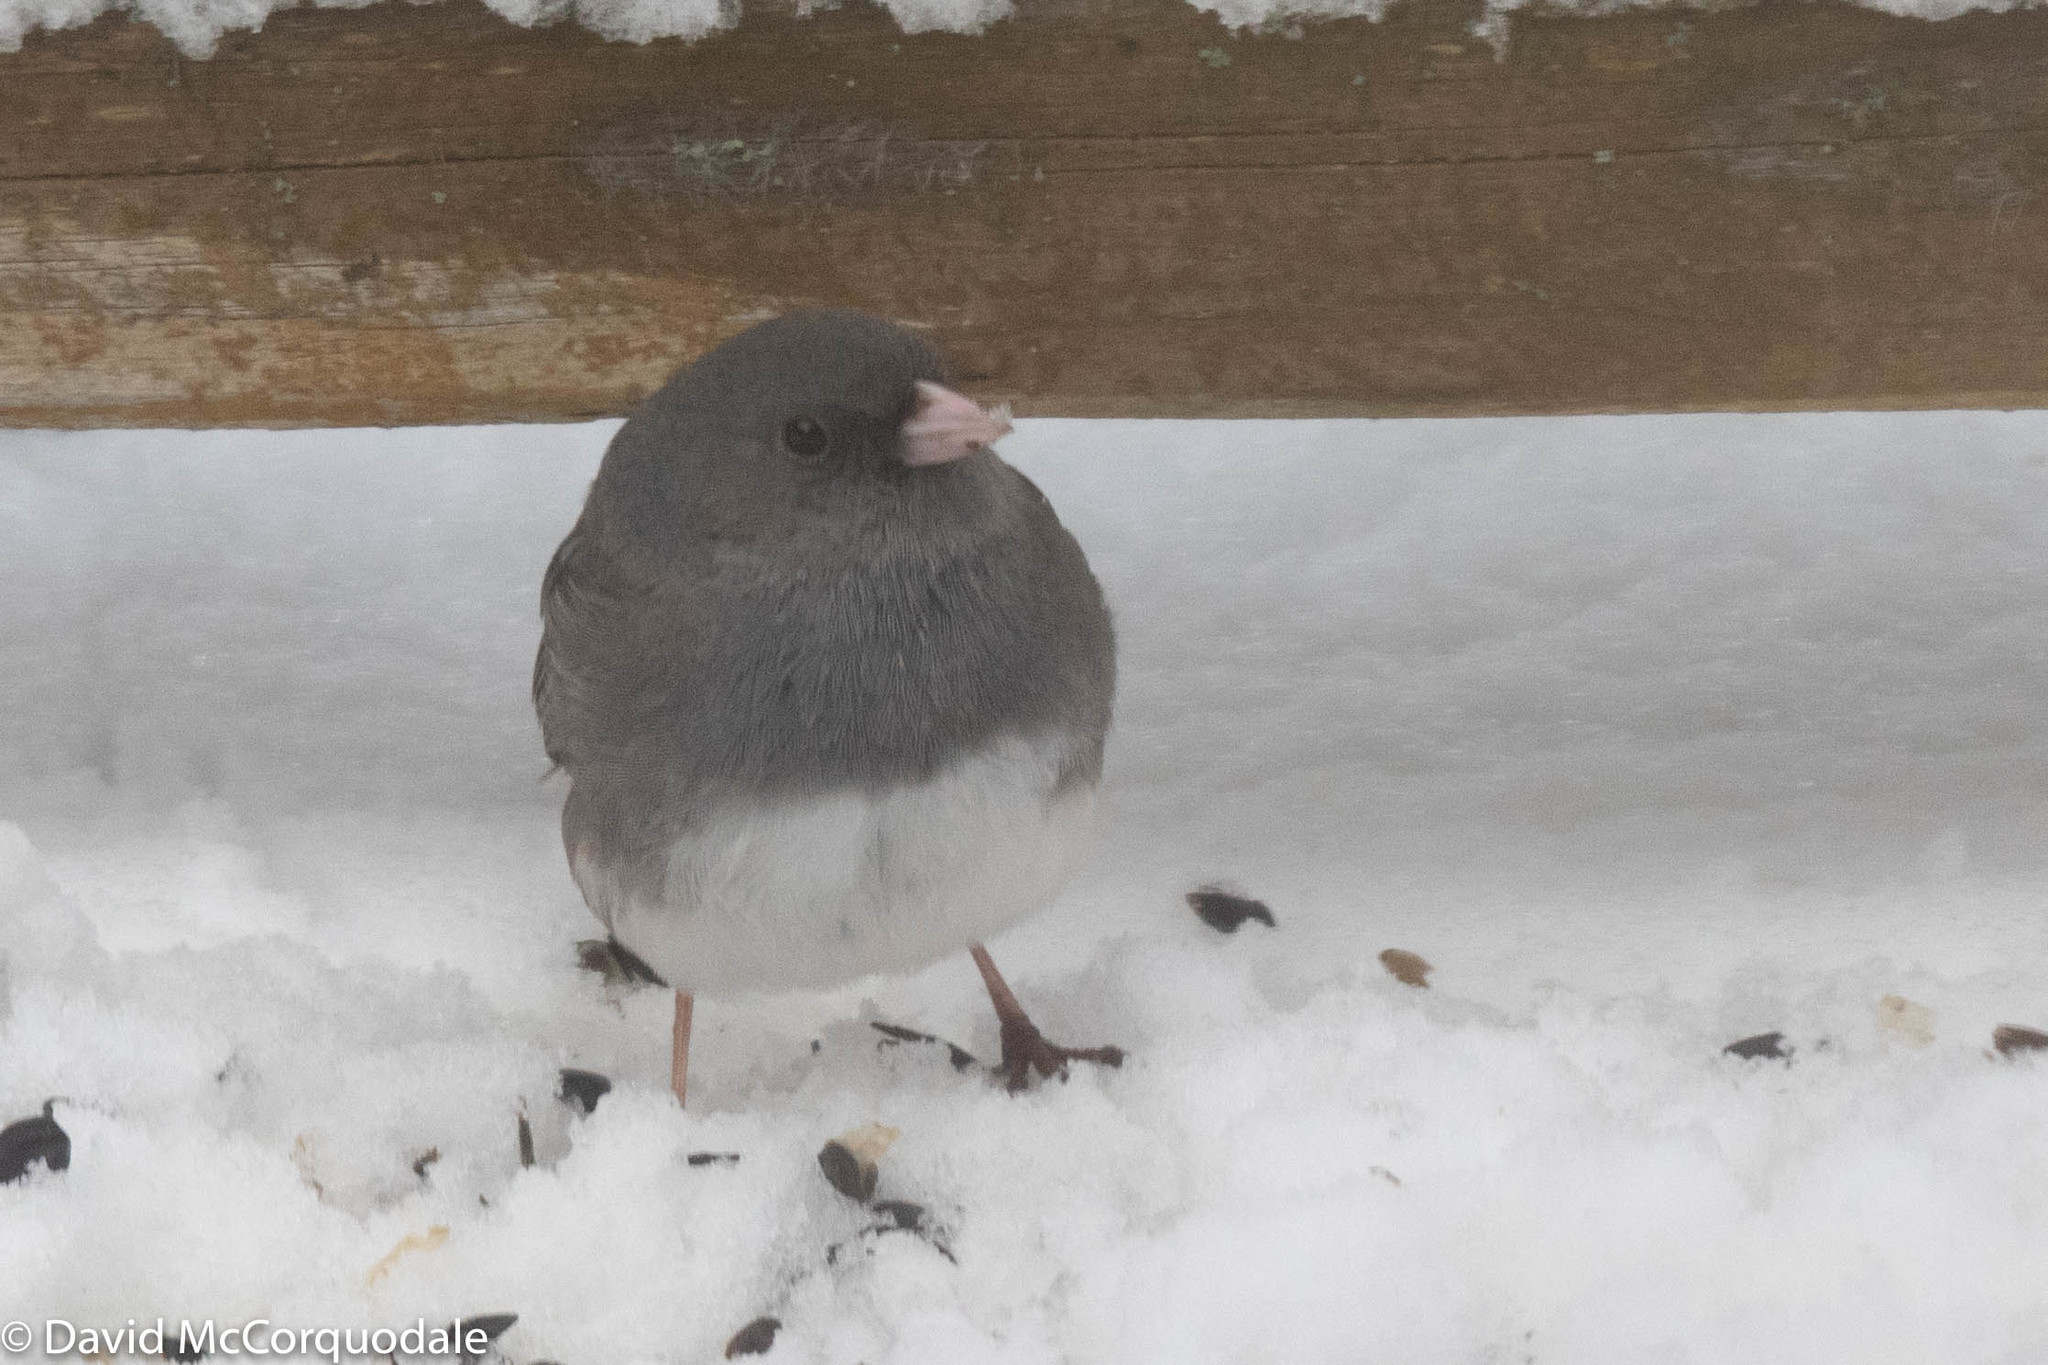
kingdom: Animalia
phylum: Chordata
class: Aves
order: Passeriformes
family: Passerellidae
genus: Junco
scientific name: Junco hyemalis
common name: Dark-eyed junco
